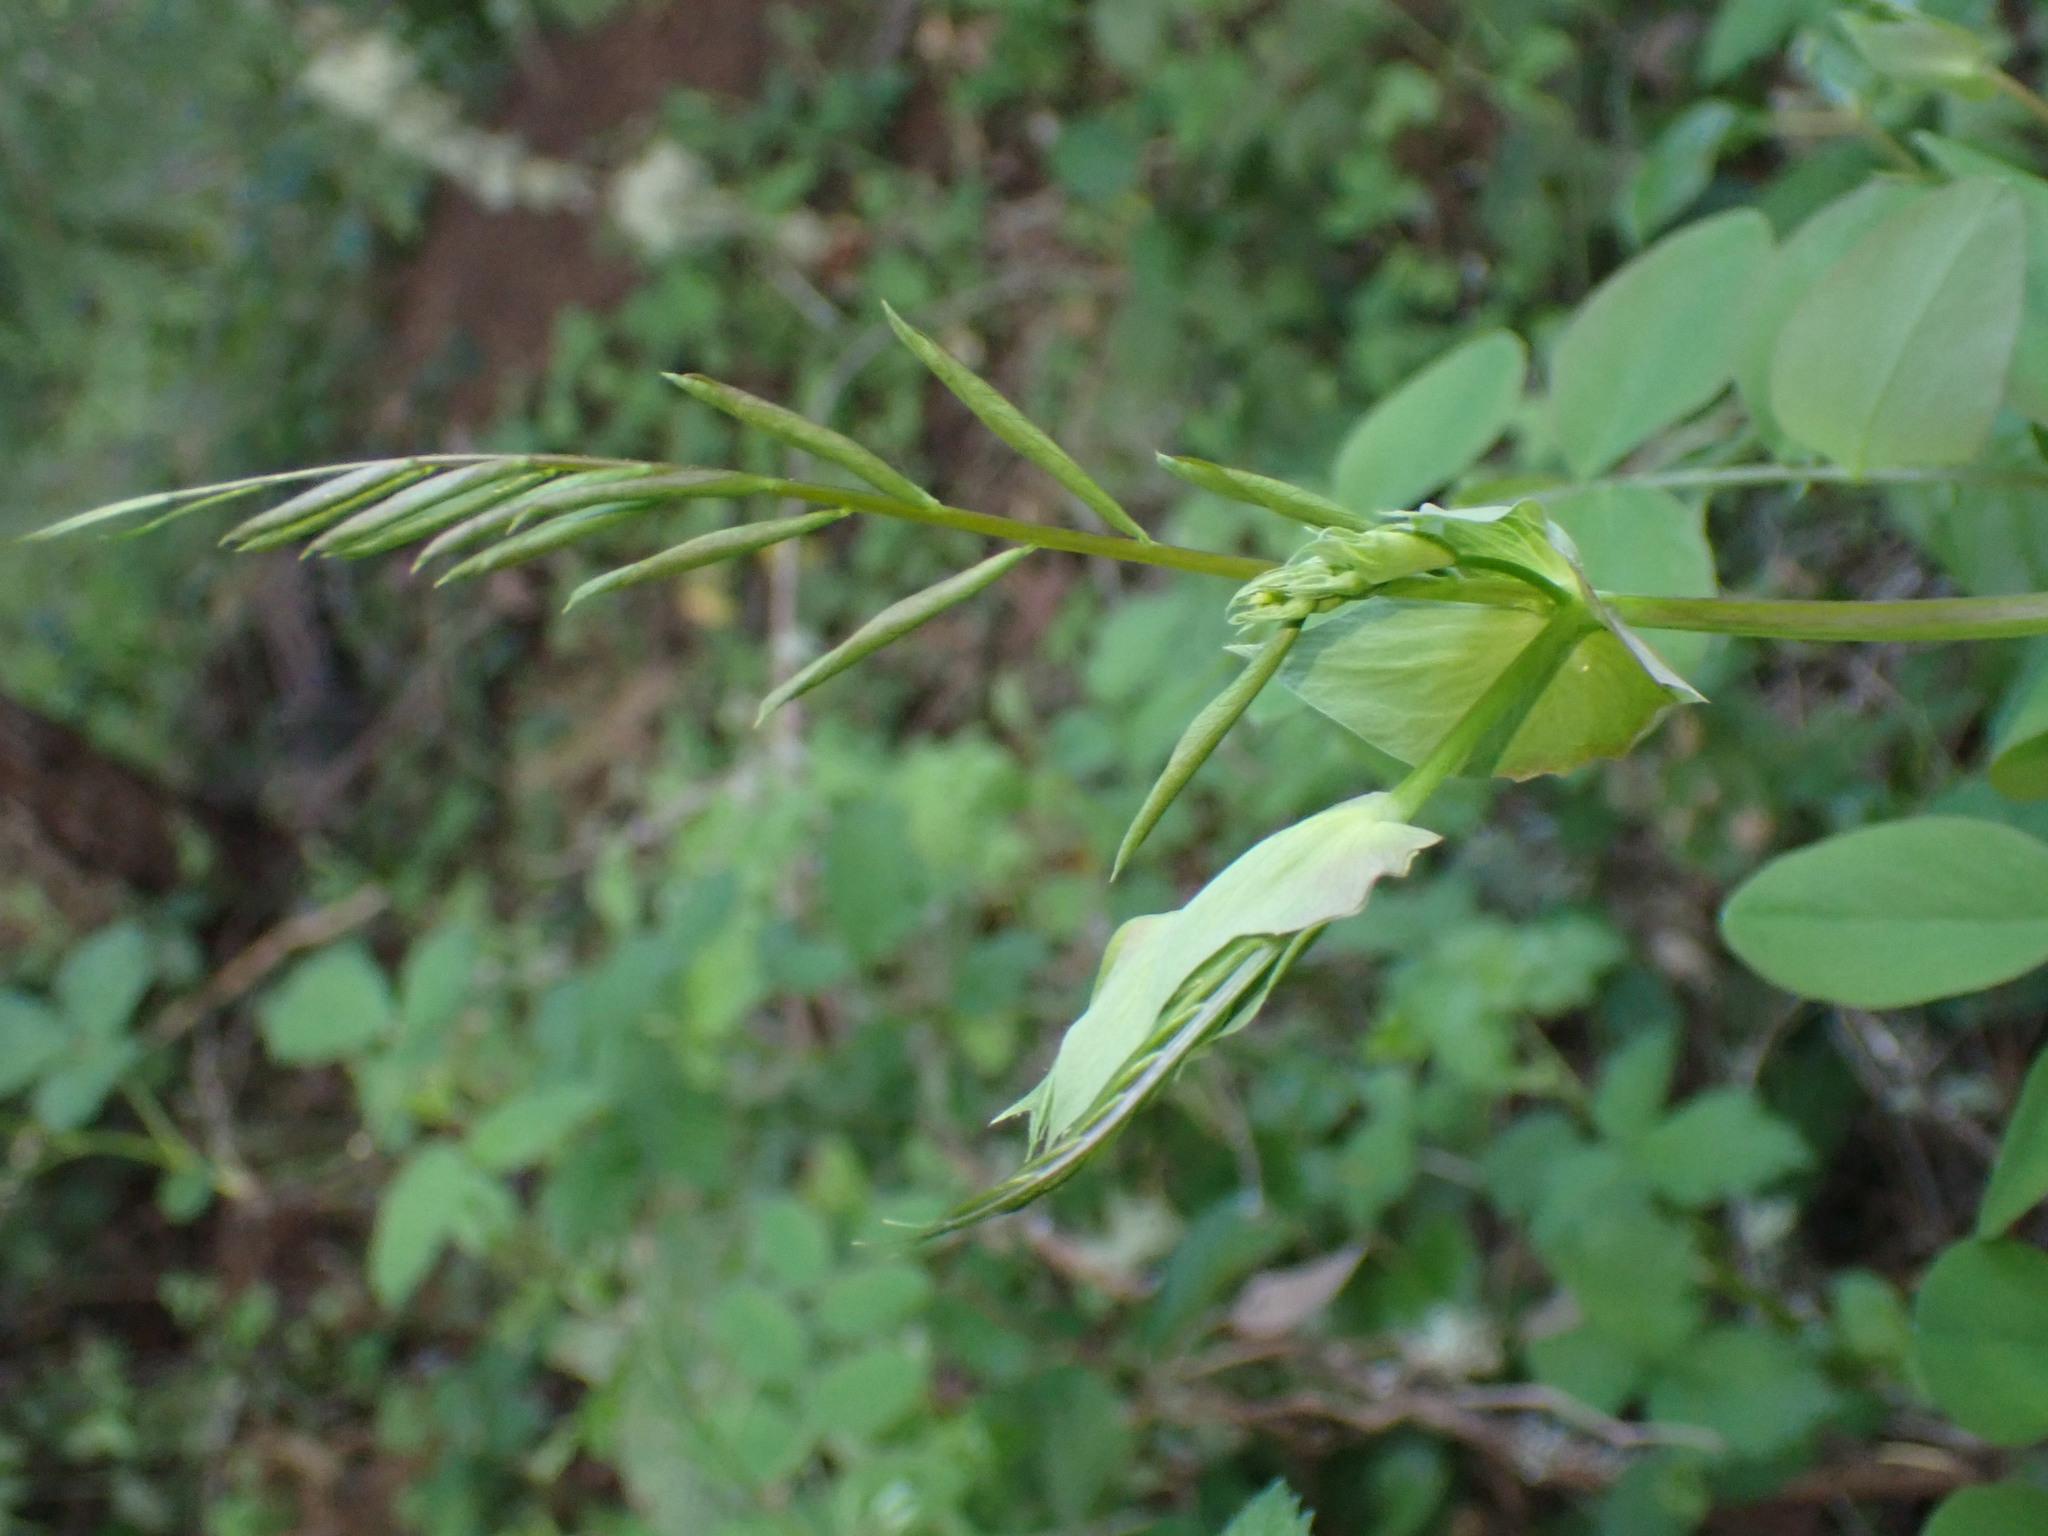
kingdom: Plantae
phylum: Tracheophyta
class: Magnoliopsida
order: Fabales
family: Fabaceae
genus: Lathyrus
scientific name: Lathyrus polyphyllus
